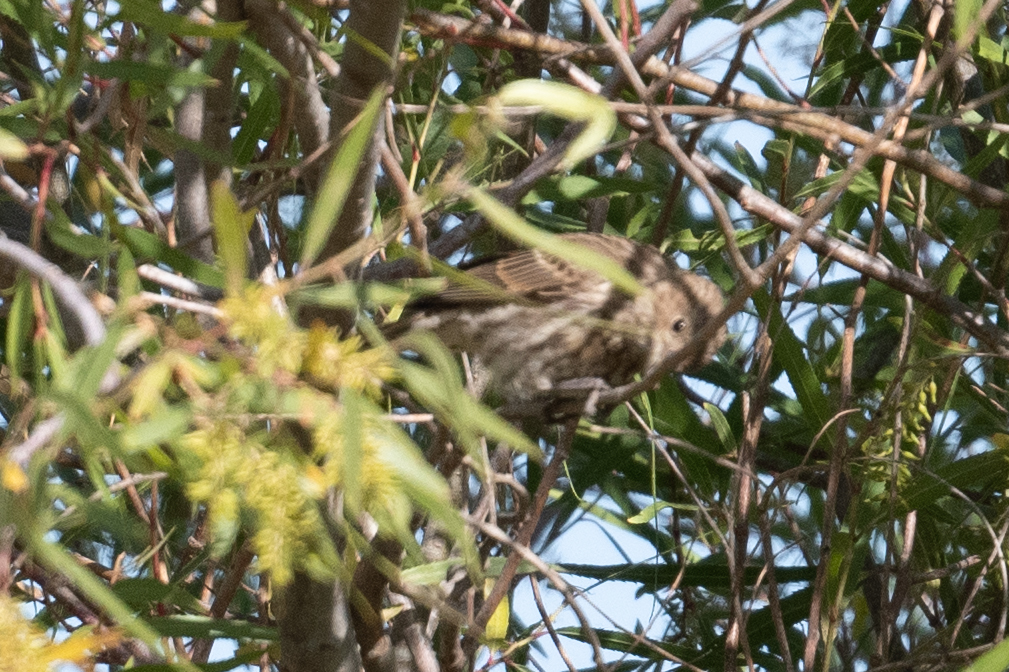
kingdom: Animalia
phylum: Chordata
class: Aves
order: Passeriformes
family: Fringillidae
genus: Haemorhous
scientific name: Haemorhous mexicanus
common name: House finch
